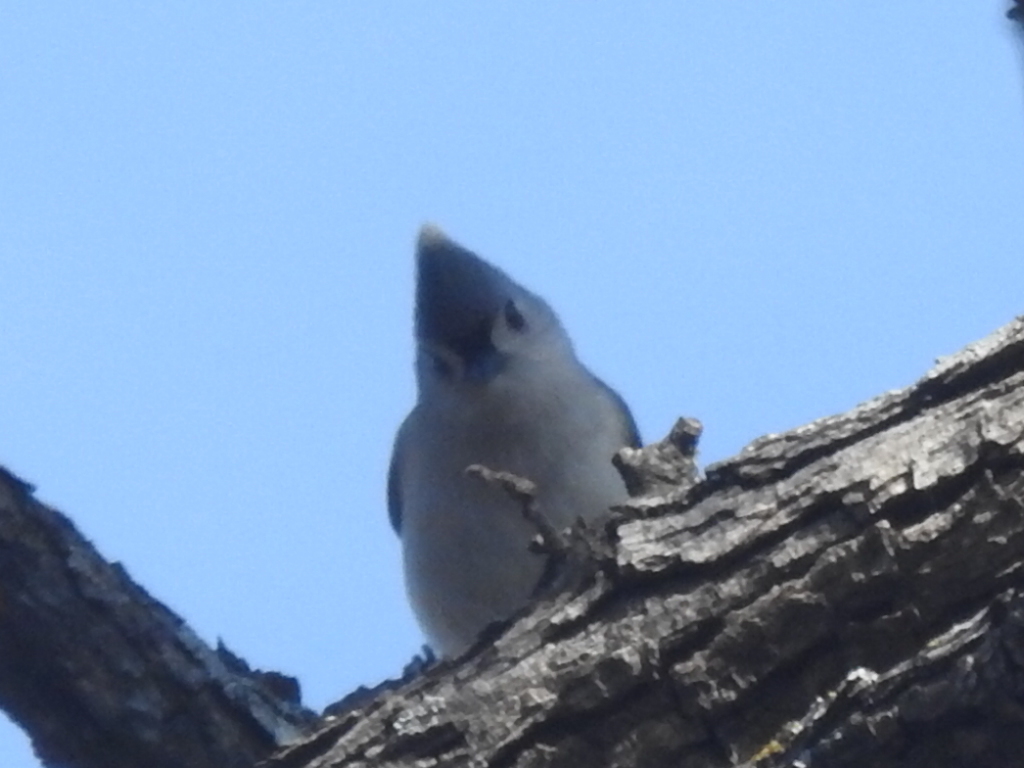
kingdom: Animalia
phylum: Chordata
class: Aves
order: Passeriformes
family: Paridae
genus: Baeolophus
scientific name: Baeolophus bicolor
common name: Tufted titmouse
